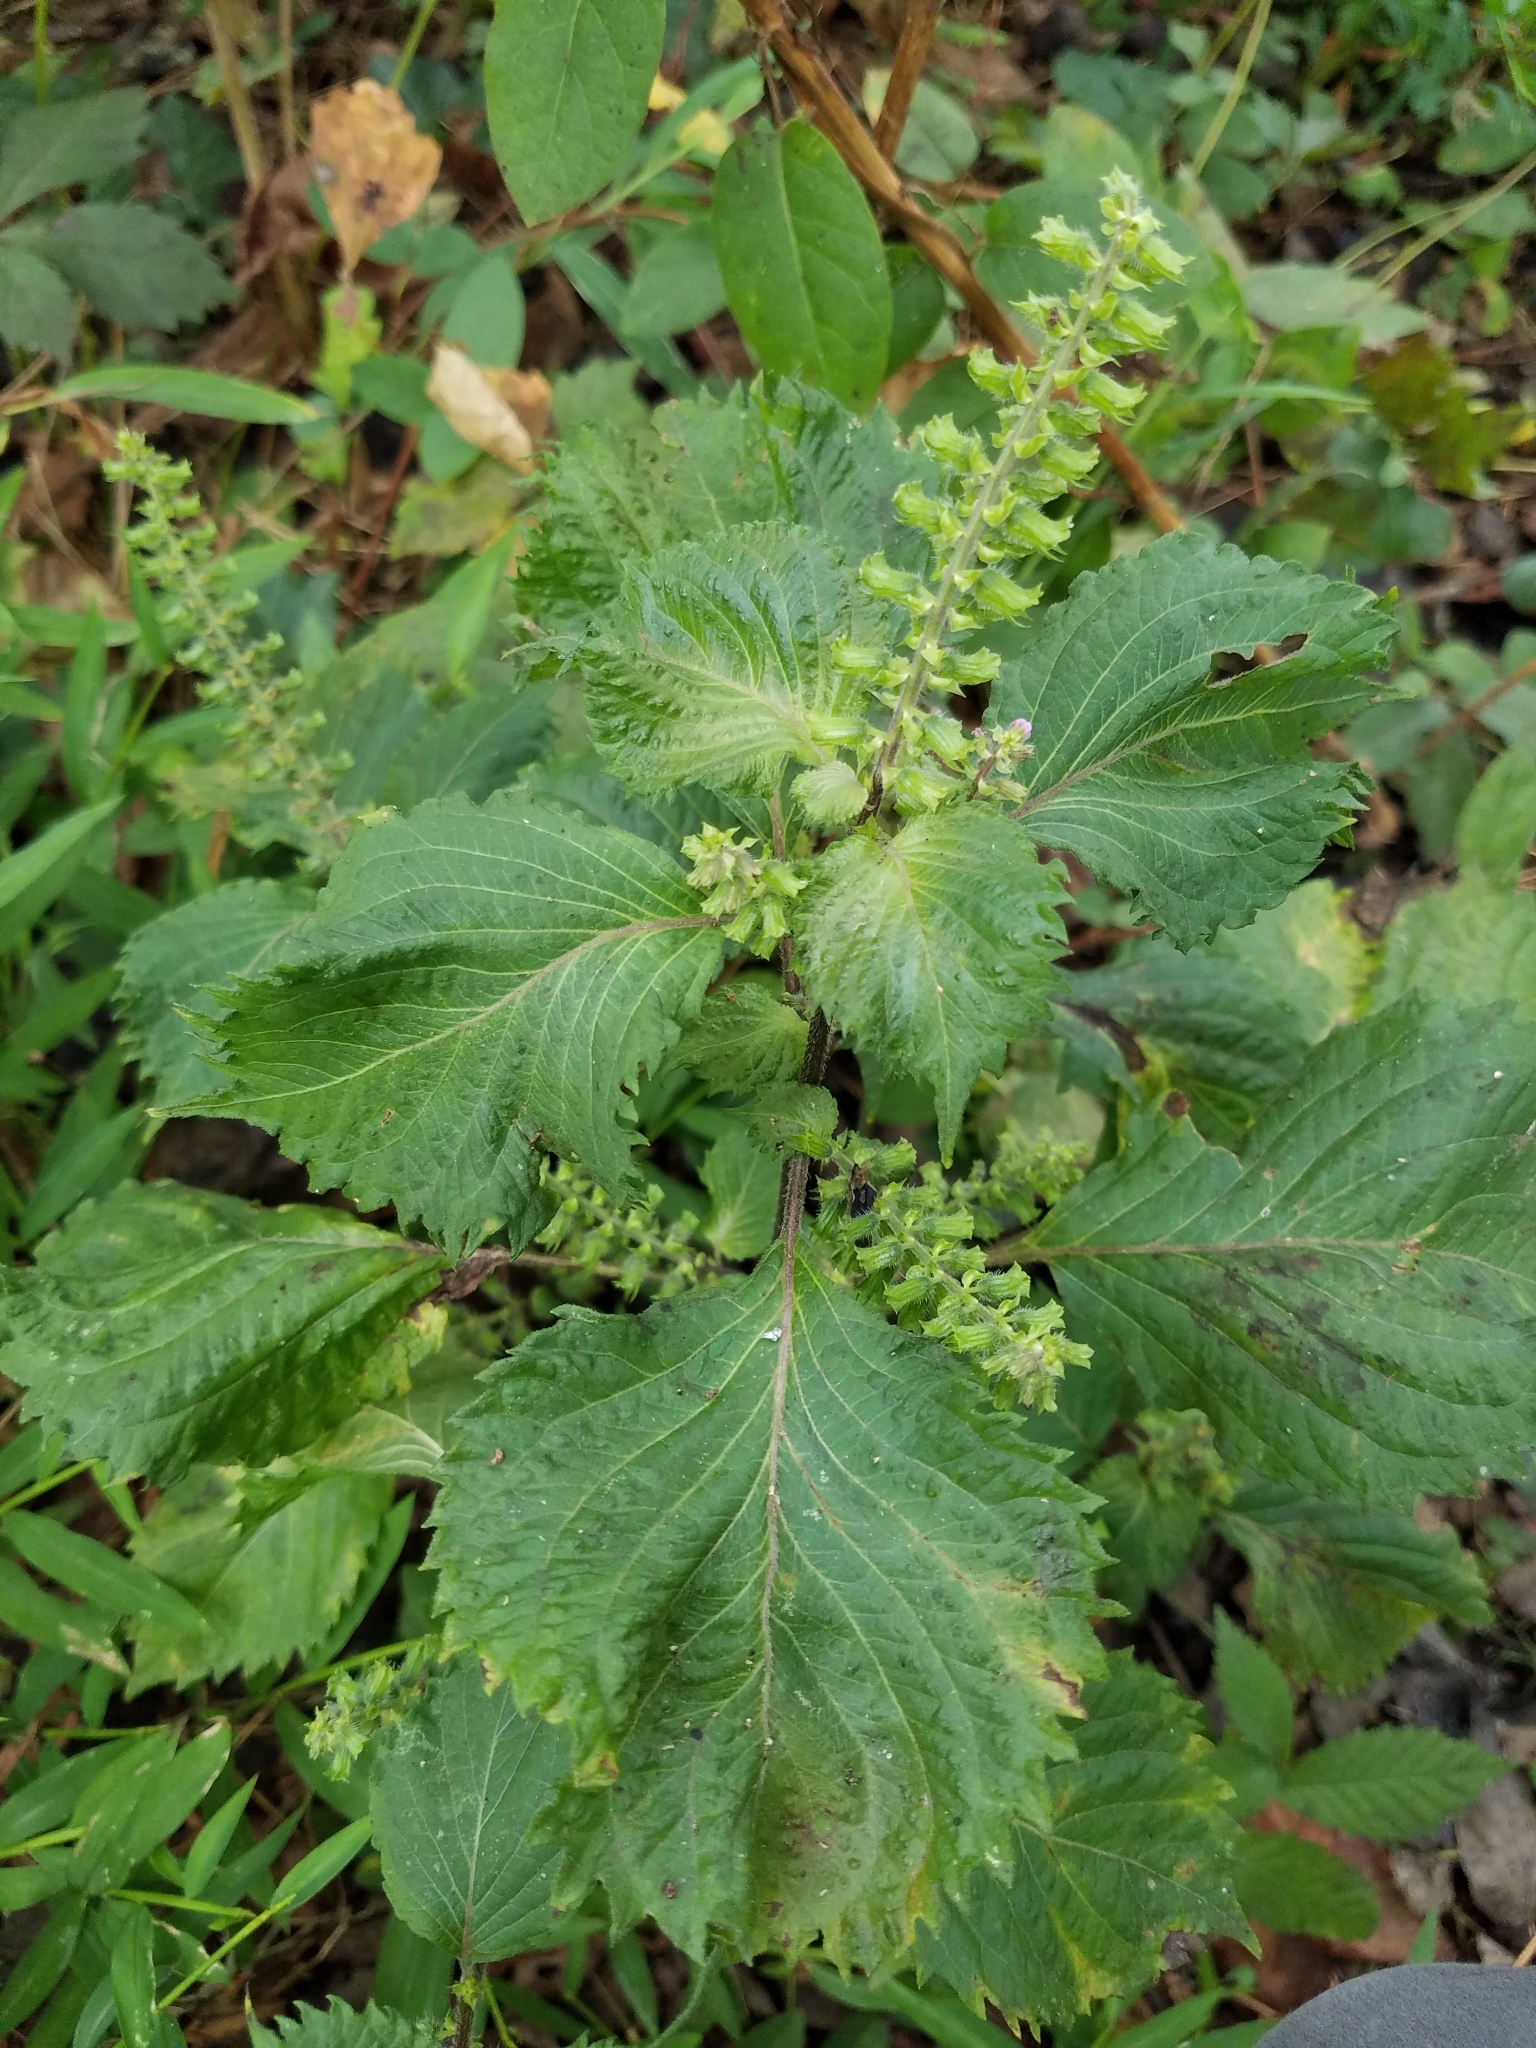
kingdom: Plantae
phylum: Tracheophyta
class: Magnoliopsida
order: Lamiales
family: Lamiaceae
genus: Perilla
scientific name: Perilla frutescens
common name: Perilla
